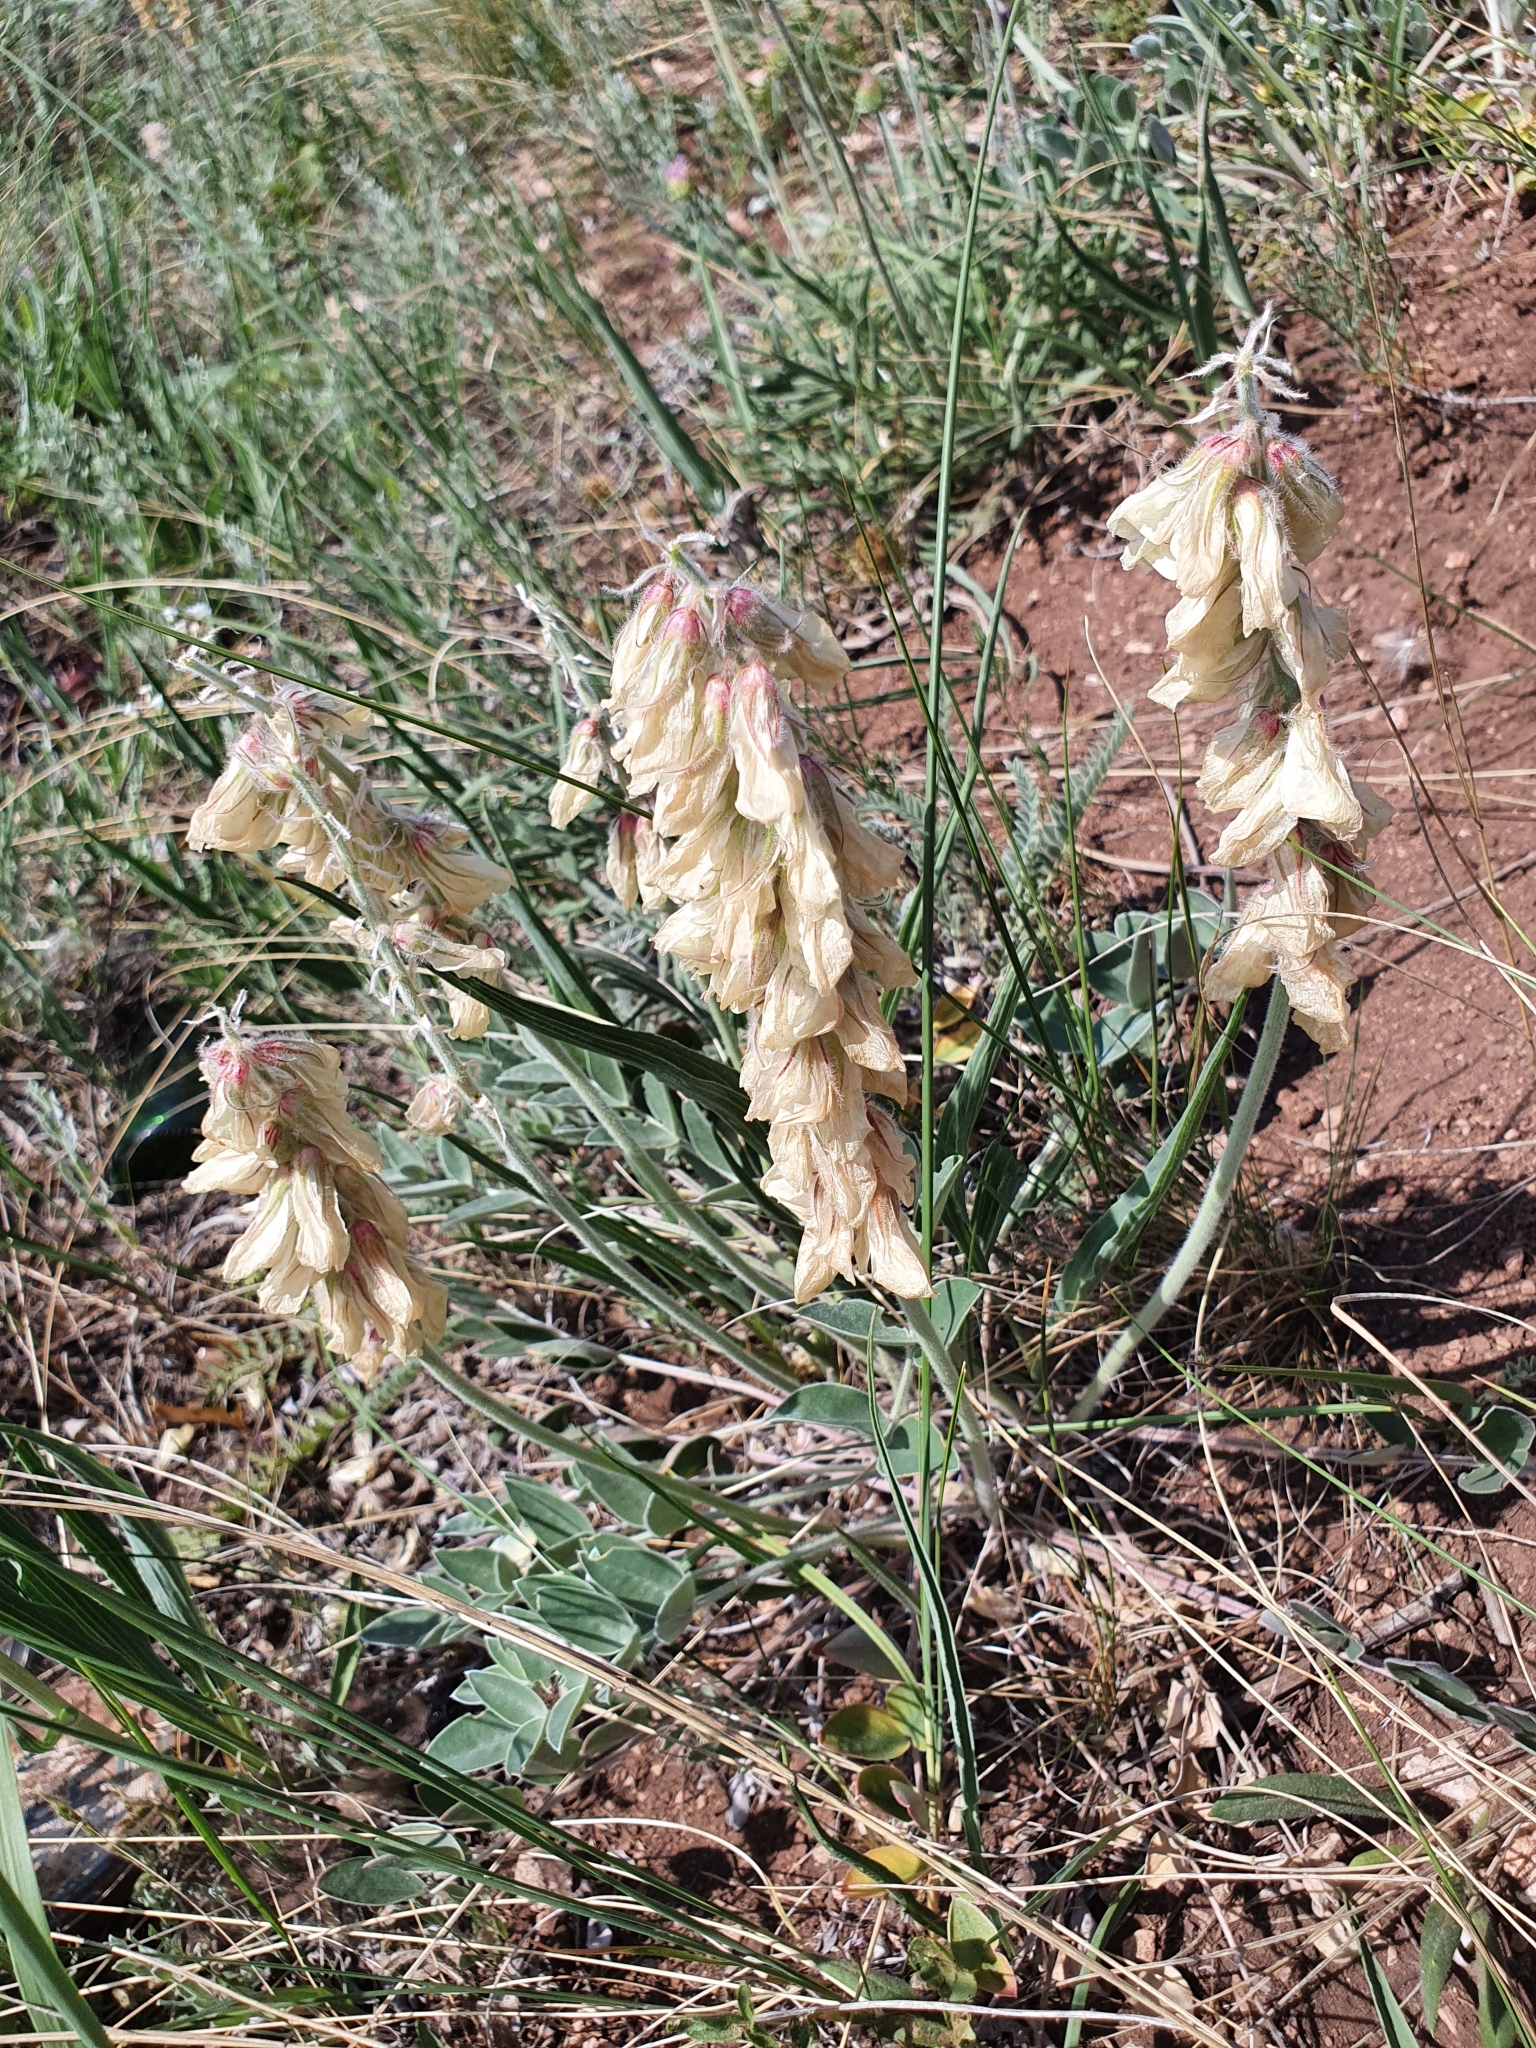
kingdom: Plantae
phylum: Tracheophyta
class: Magnoliopsida
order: Fabales
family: Fabaceae
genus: Hedysarum
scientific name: Hedysarum grandiflorum
